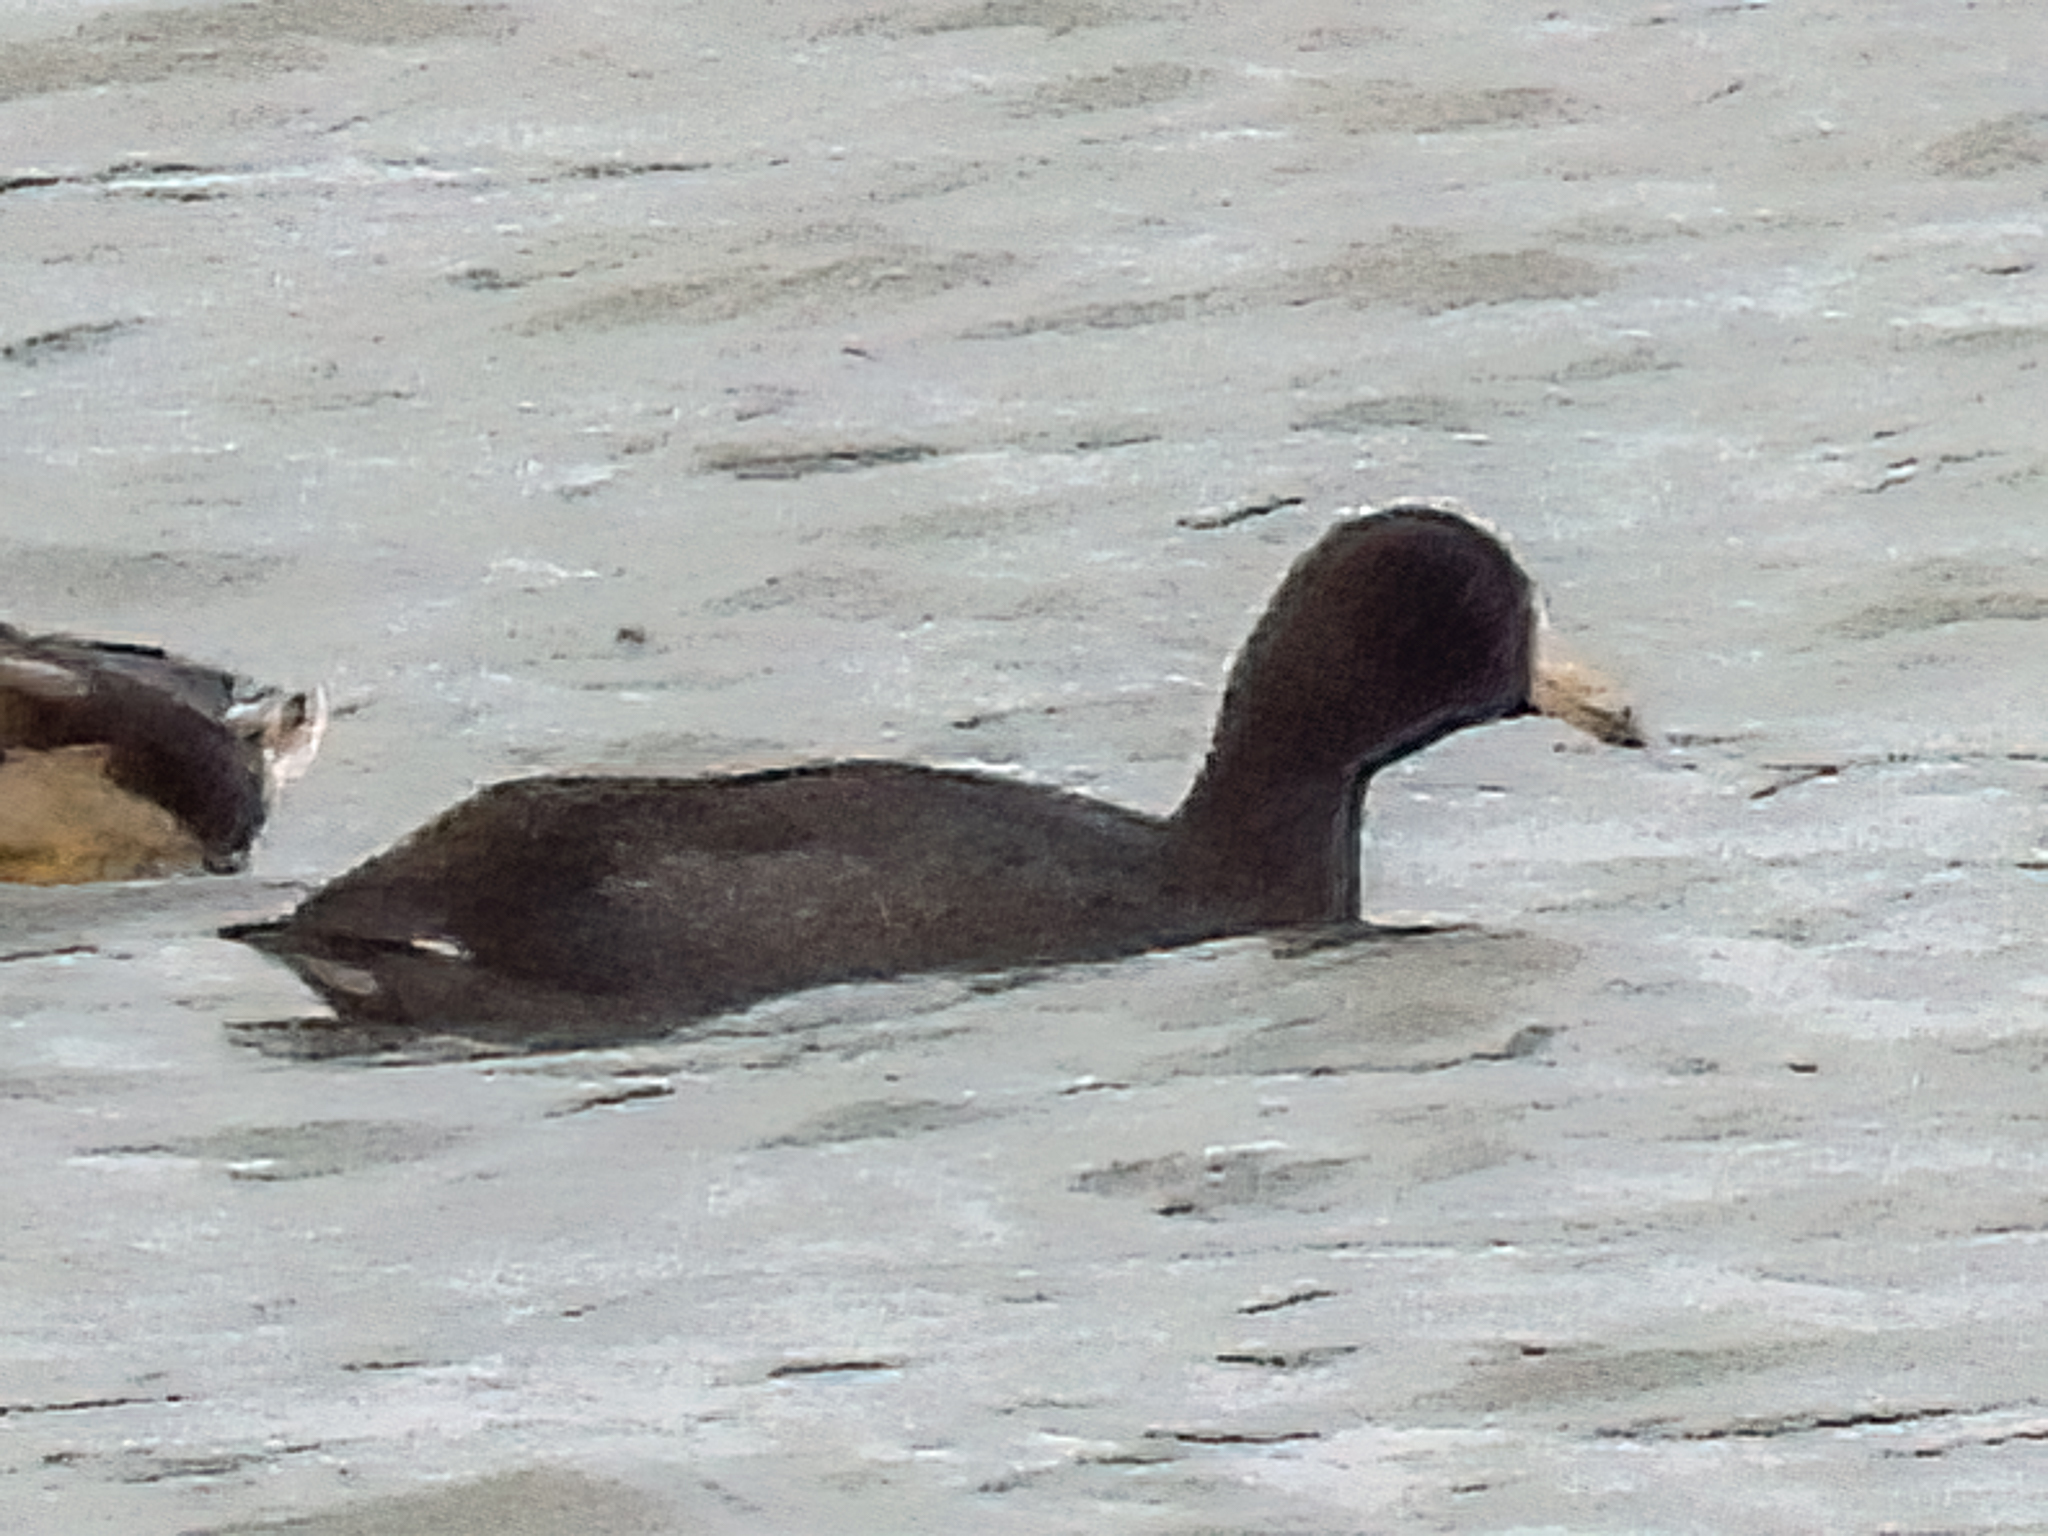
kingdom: Animalia
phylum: Chordata
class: Aves
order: Gruiformes
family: Rallidae
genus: Fulica
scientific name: Fulica americana
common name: American coot
